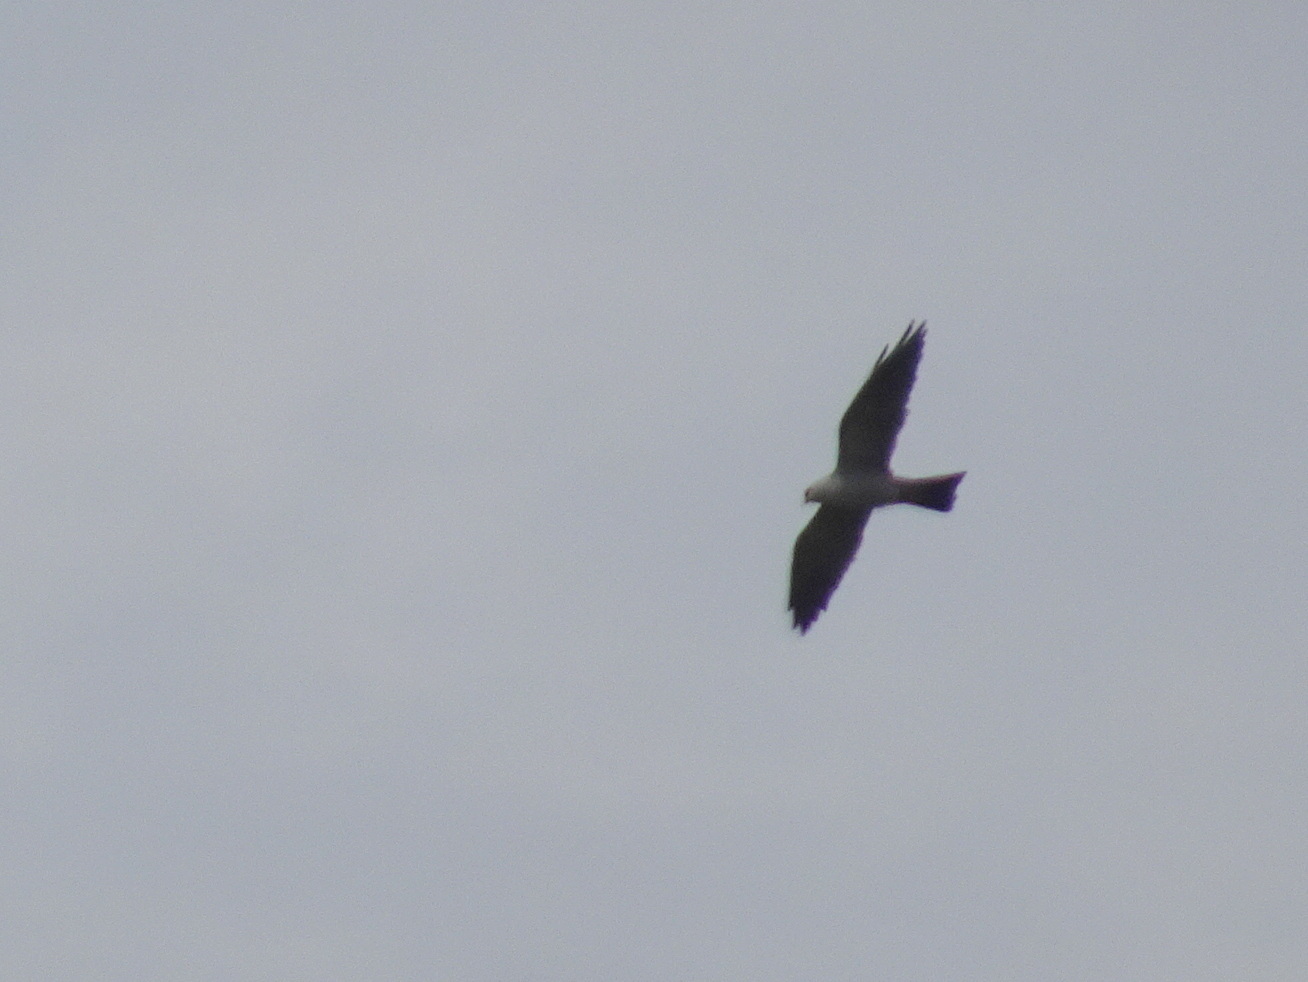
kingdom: Animalia
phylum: Chordata
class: Aves
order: Accipitriformes
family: Accipitridae
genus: Ictinia
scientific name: Ictinia mississippiensis
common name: Mississippi kite
